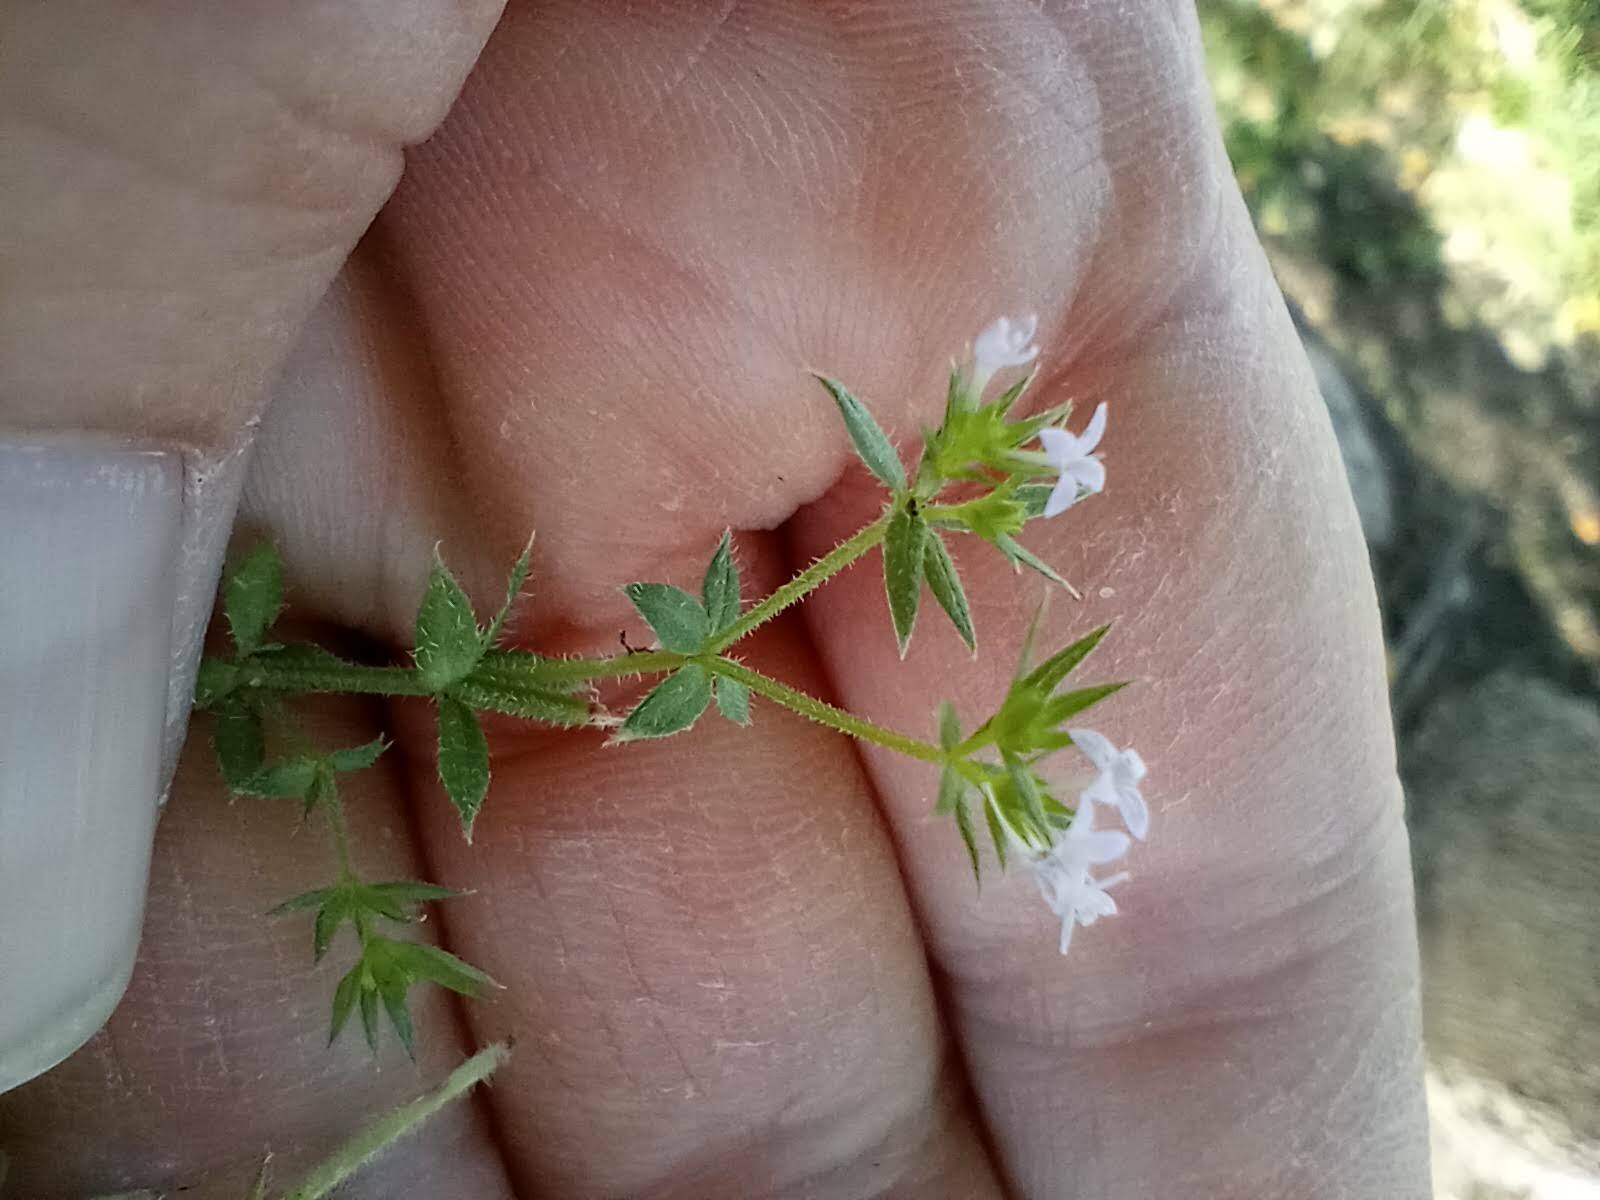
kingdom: Plantae
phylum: Tracheophyta
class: Magnoliopsida
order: Gentianales
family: Rubiaceae
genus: Sherardia
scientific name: Sherardia arvensis
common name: Field madder
